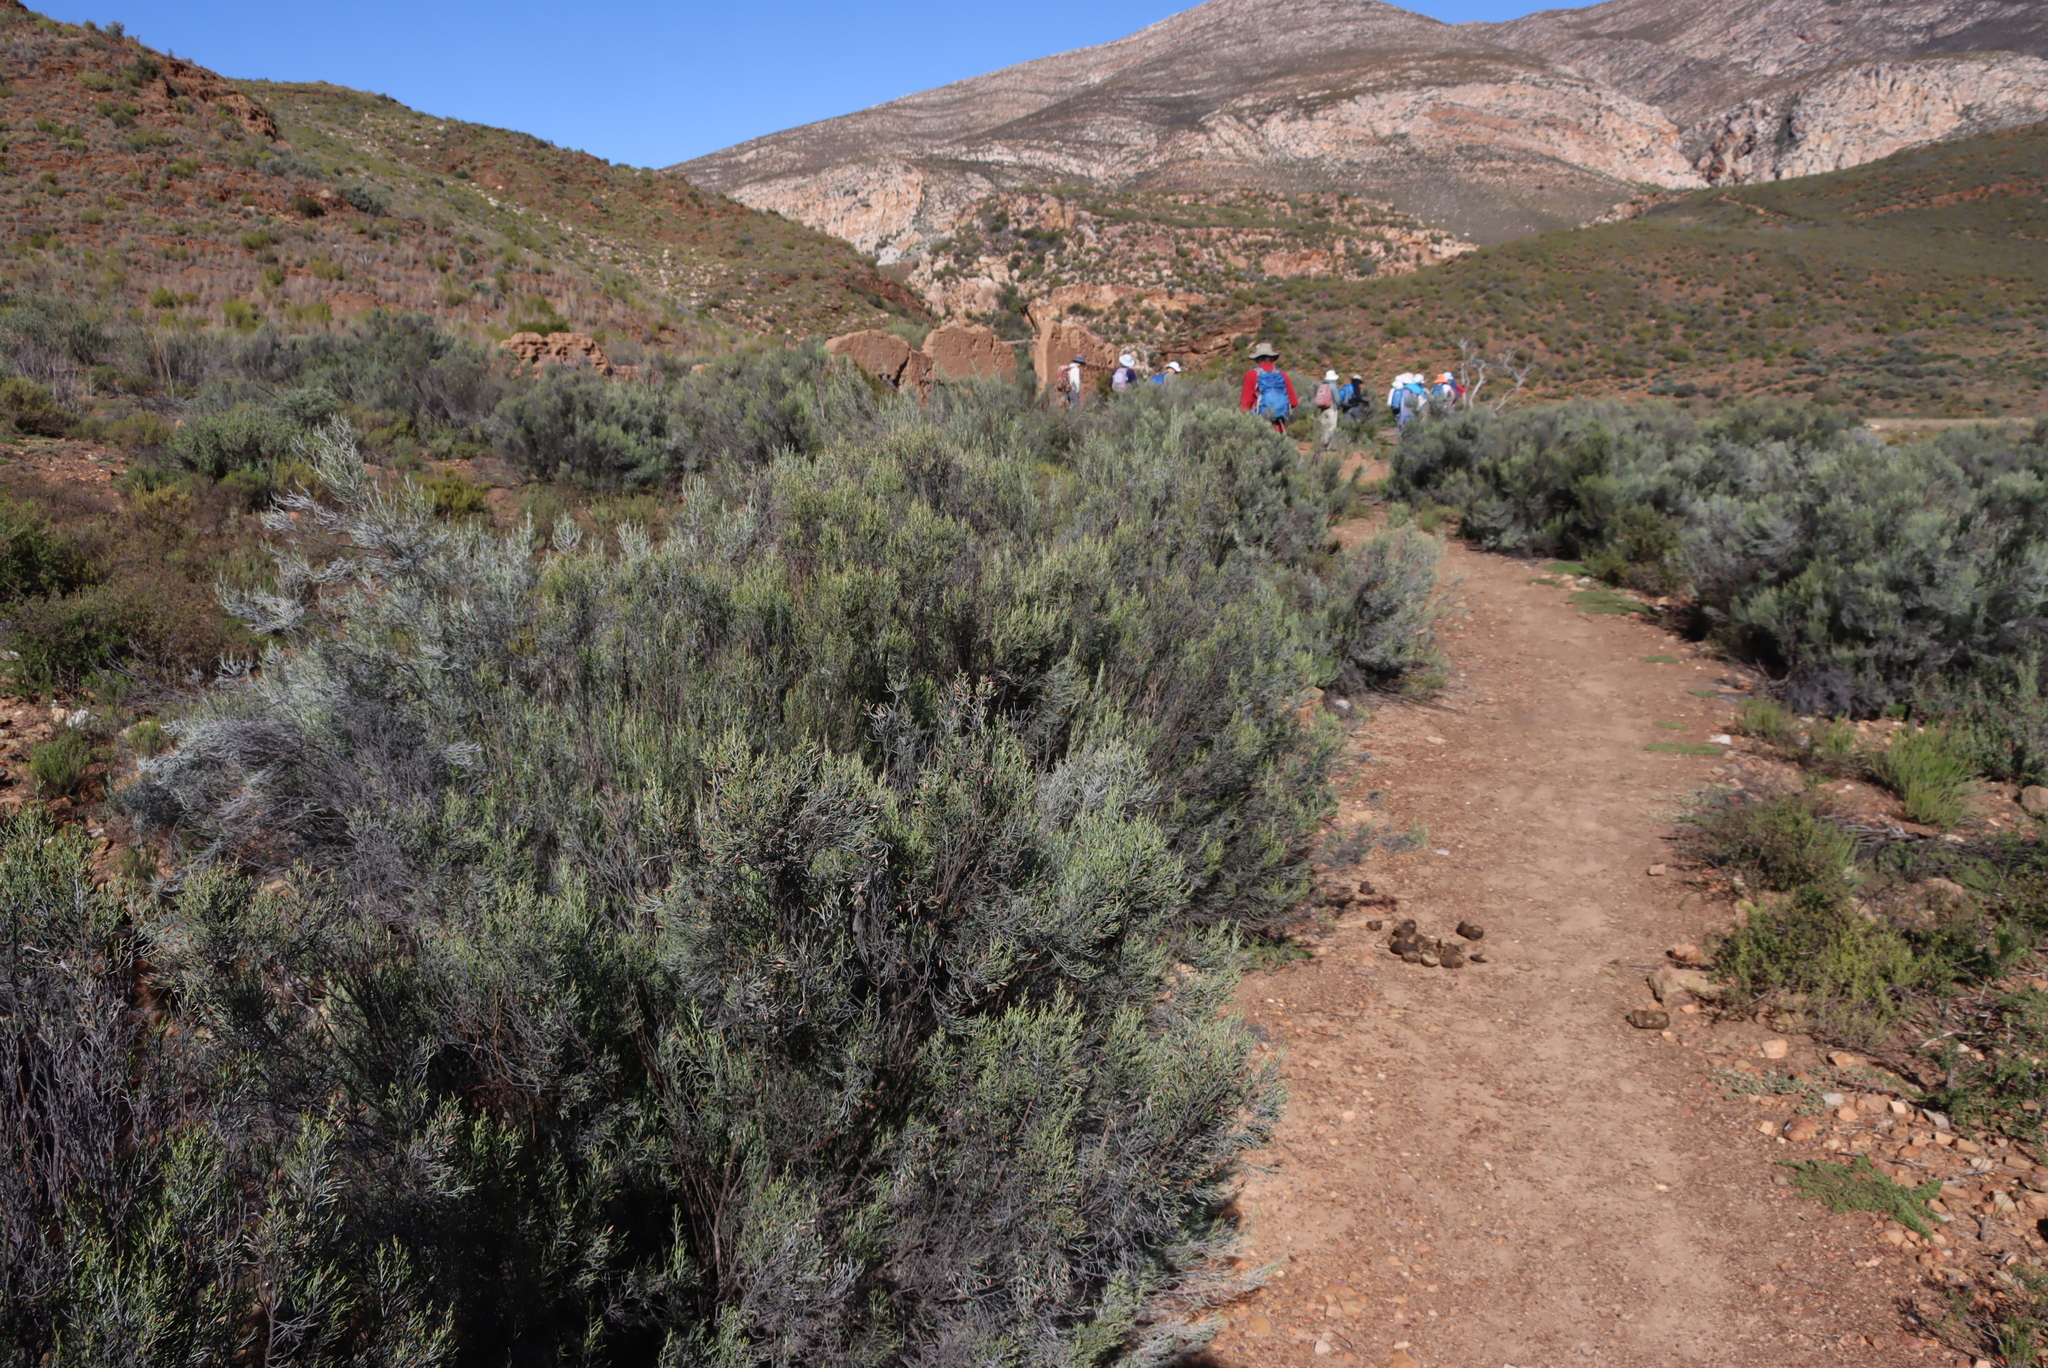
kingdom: Plantae
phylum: Tracheophyta
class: Magnoliopsida
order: Asterales
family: Asteraceae
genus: Dicerothamnus
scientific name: Dicerothamnus rhinocerotis
